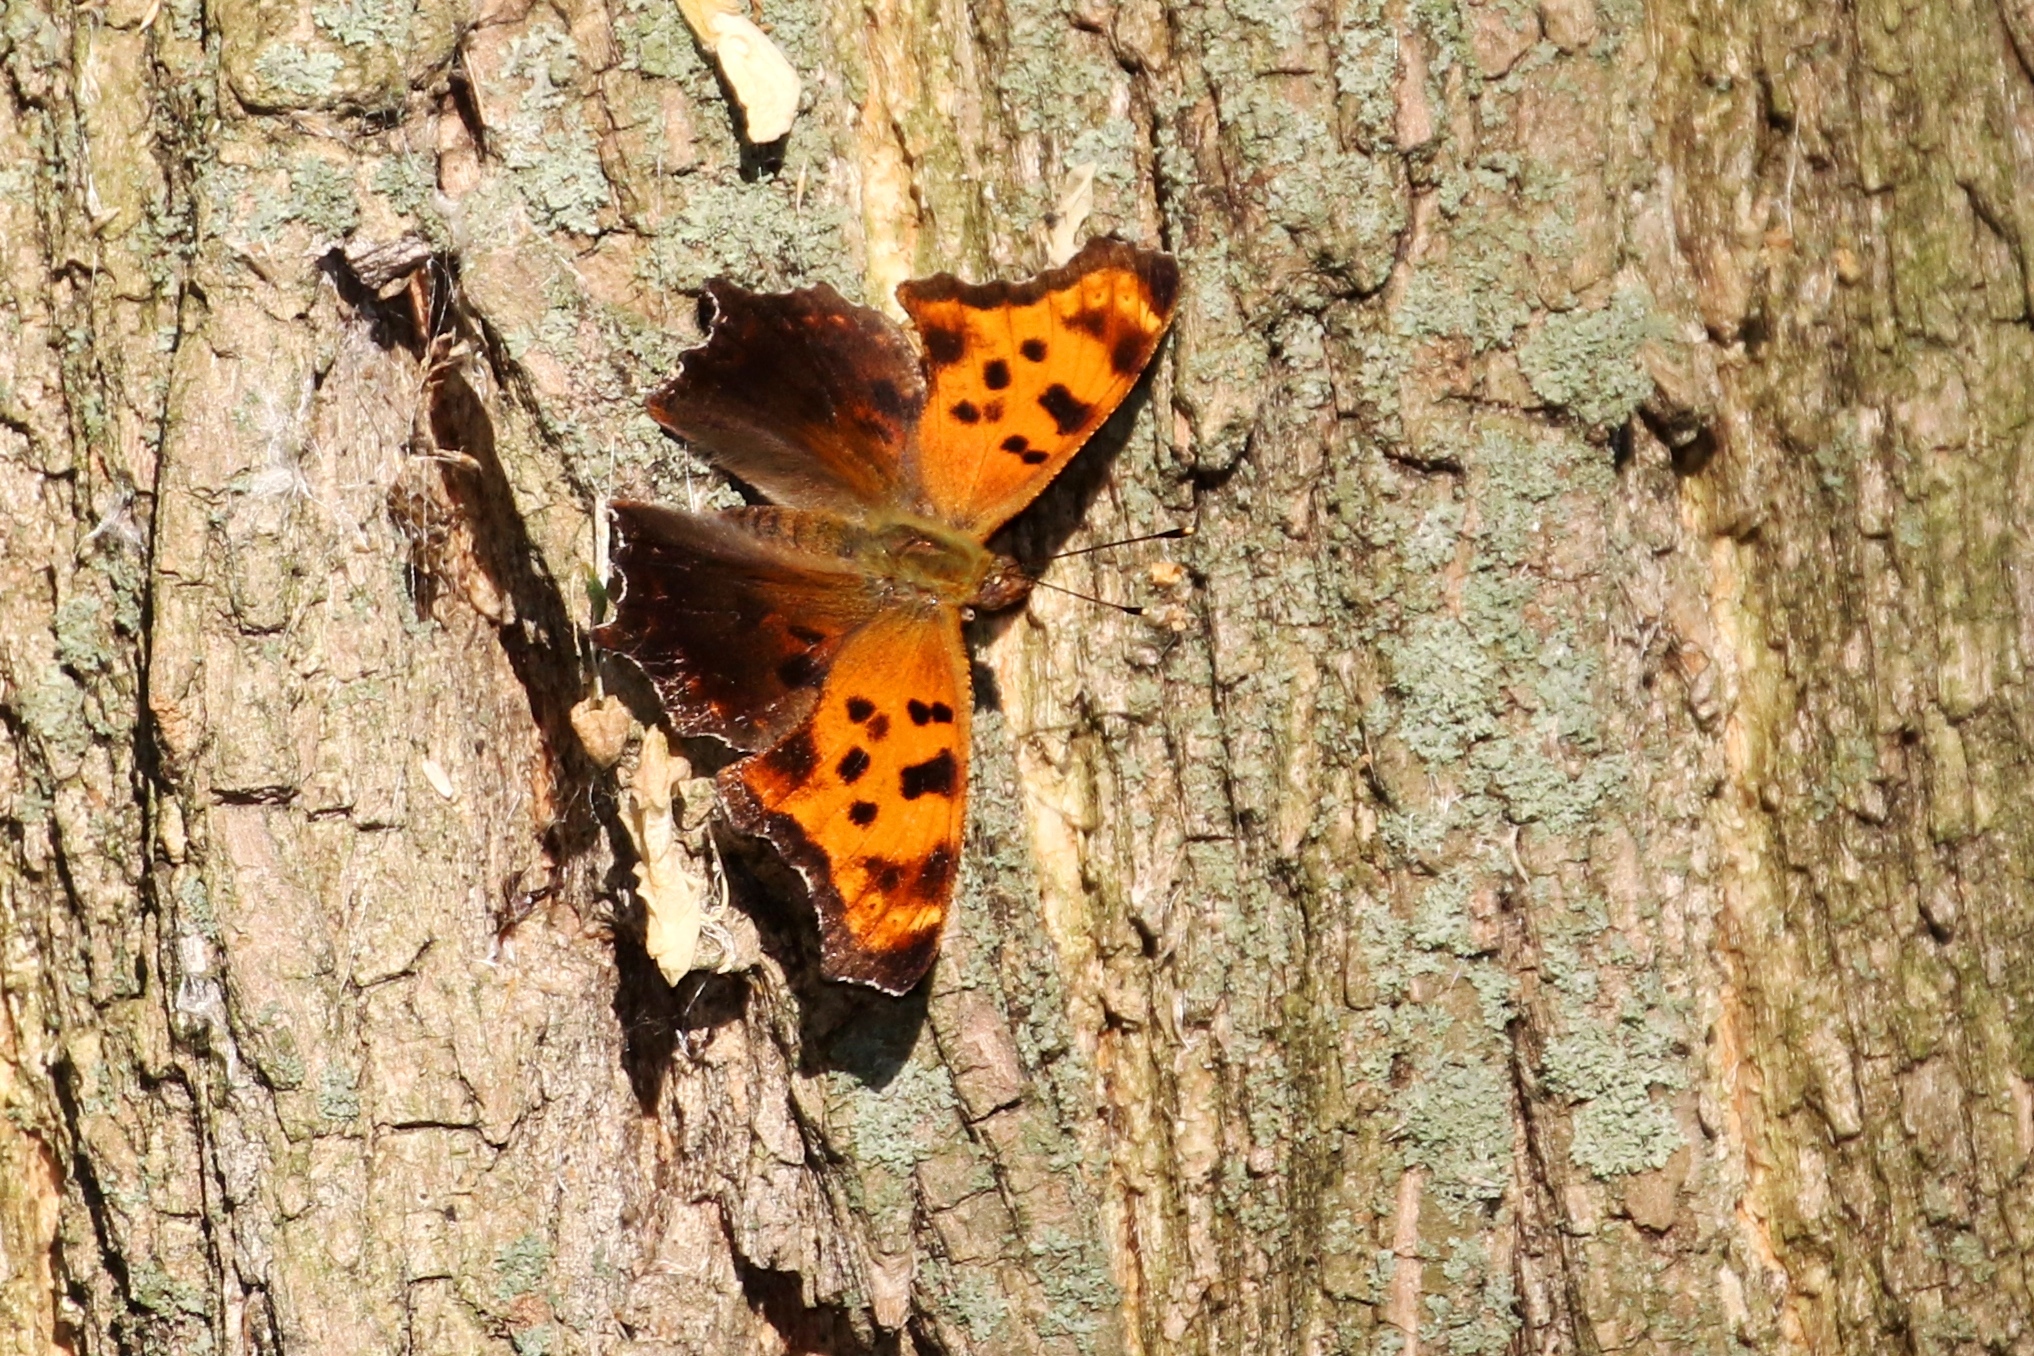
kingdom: Animalia
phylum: Arthropoda
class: Insecta
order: Lepidoptera
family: Nymphalidae
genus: Polygonia
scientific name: Polygonia comma
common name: Eastern comma
